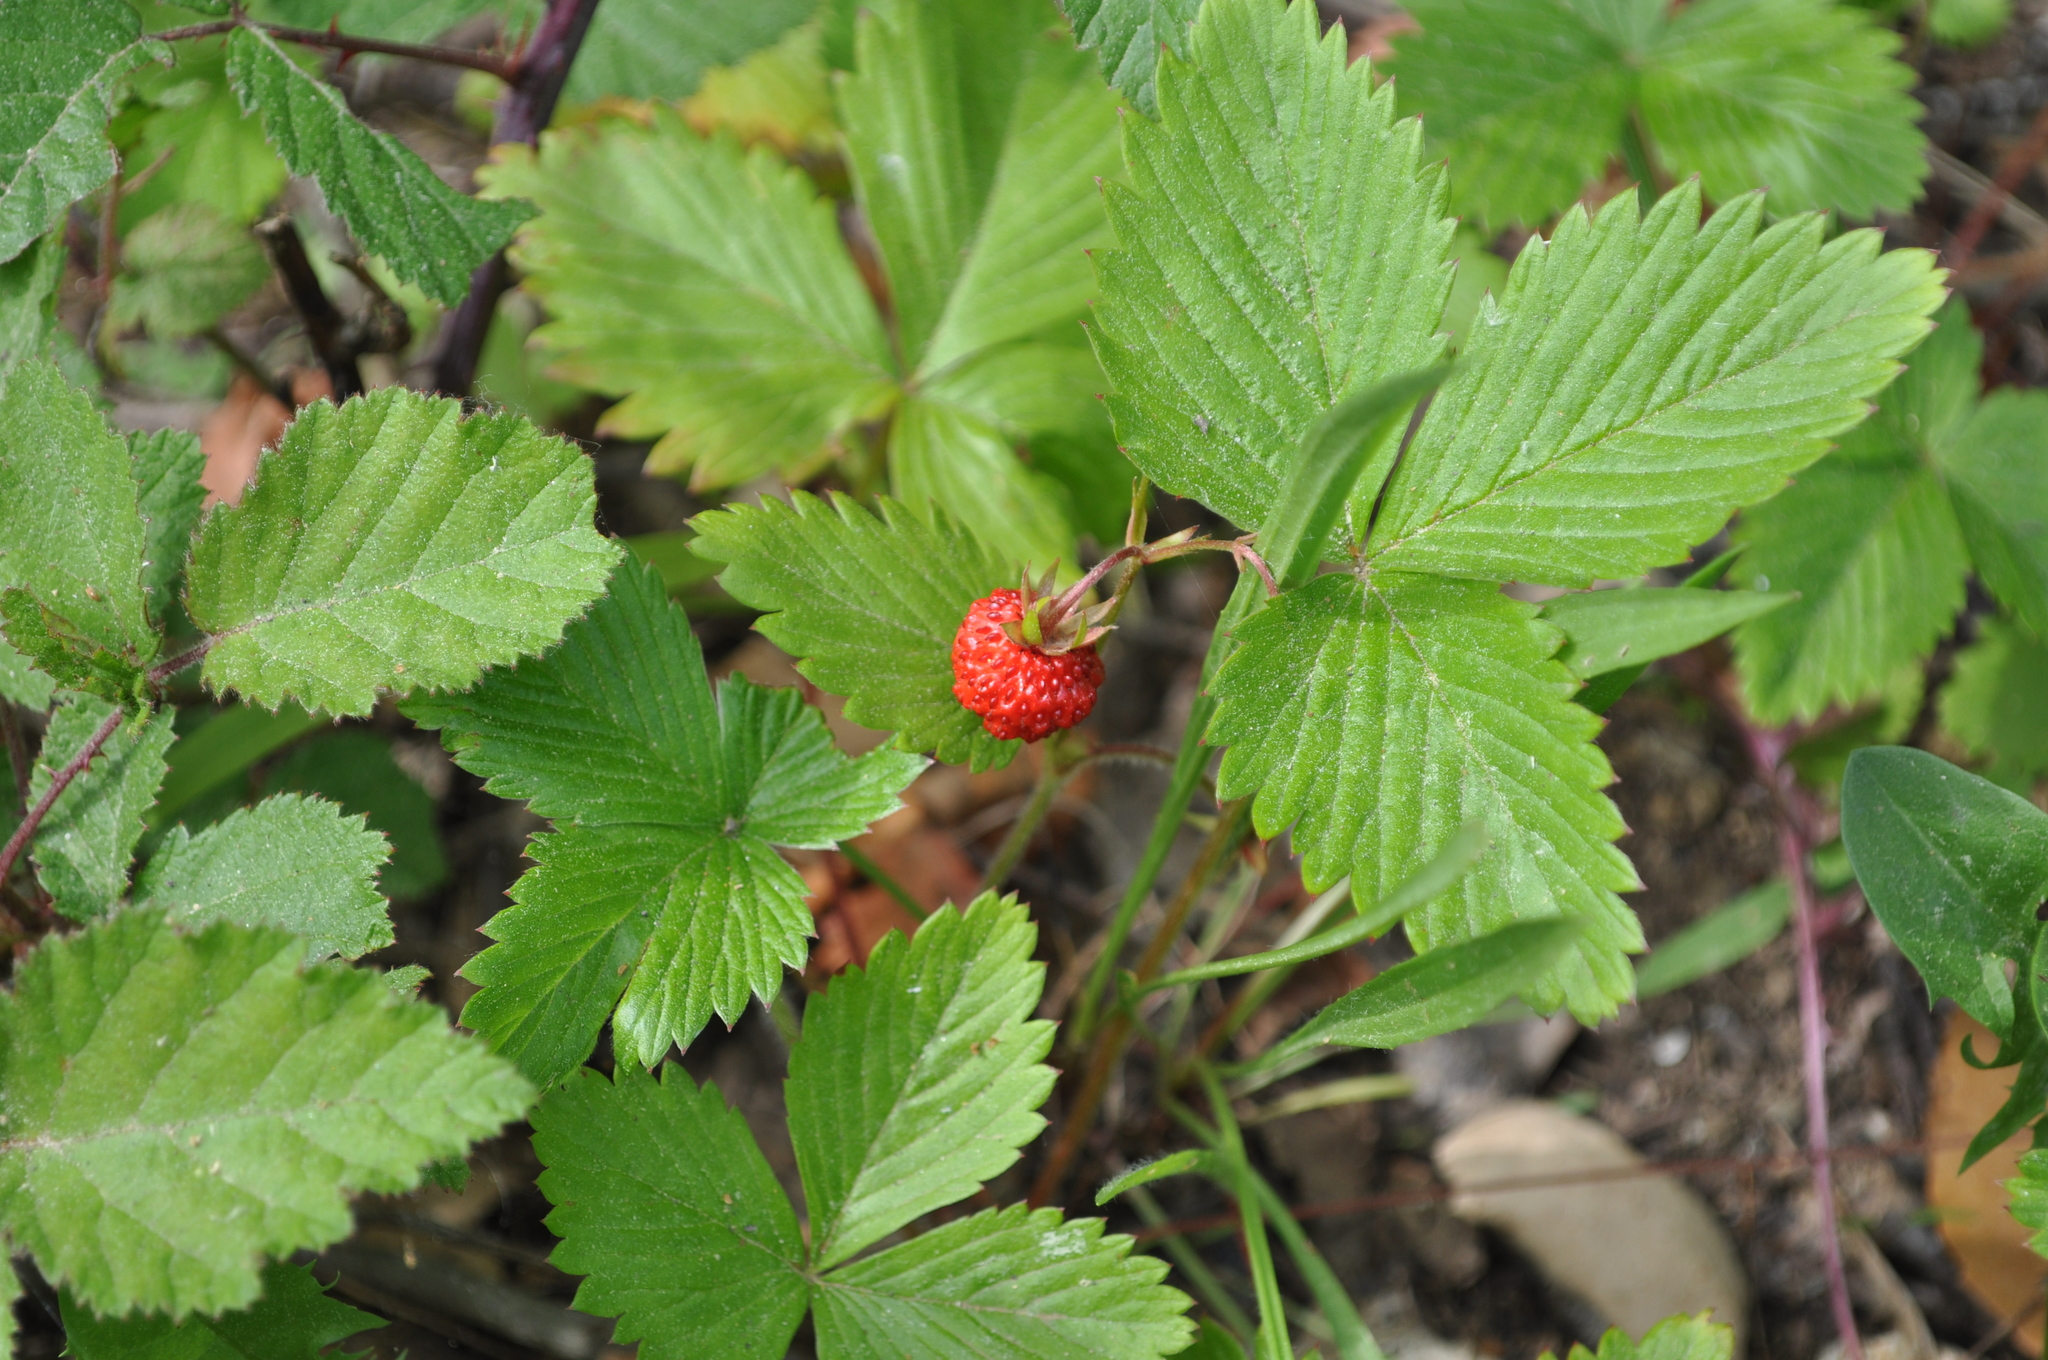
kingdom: Plantae
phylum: Tracheophyta
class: Magnoliopsida
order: Rosales
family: Rosaceae
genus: Fragaria
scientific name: Fragaria vesca
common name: Wild strawberry
